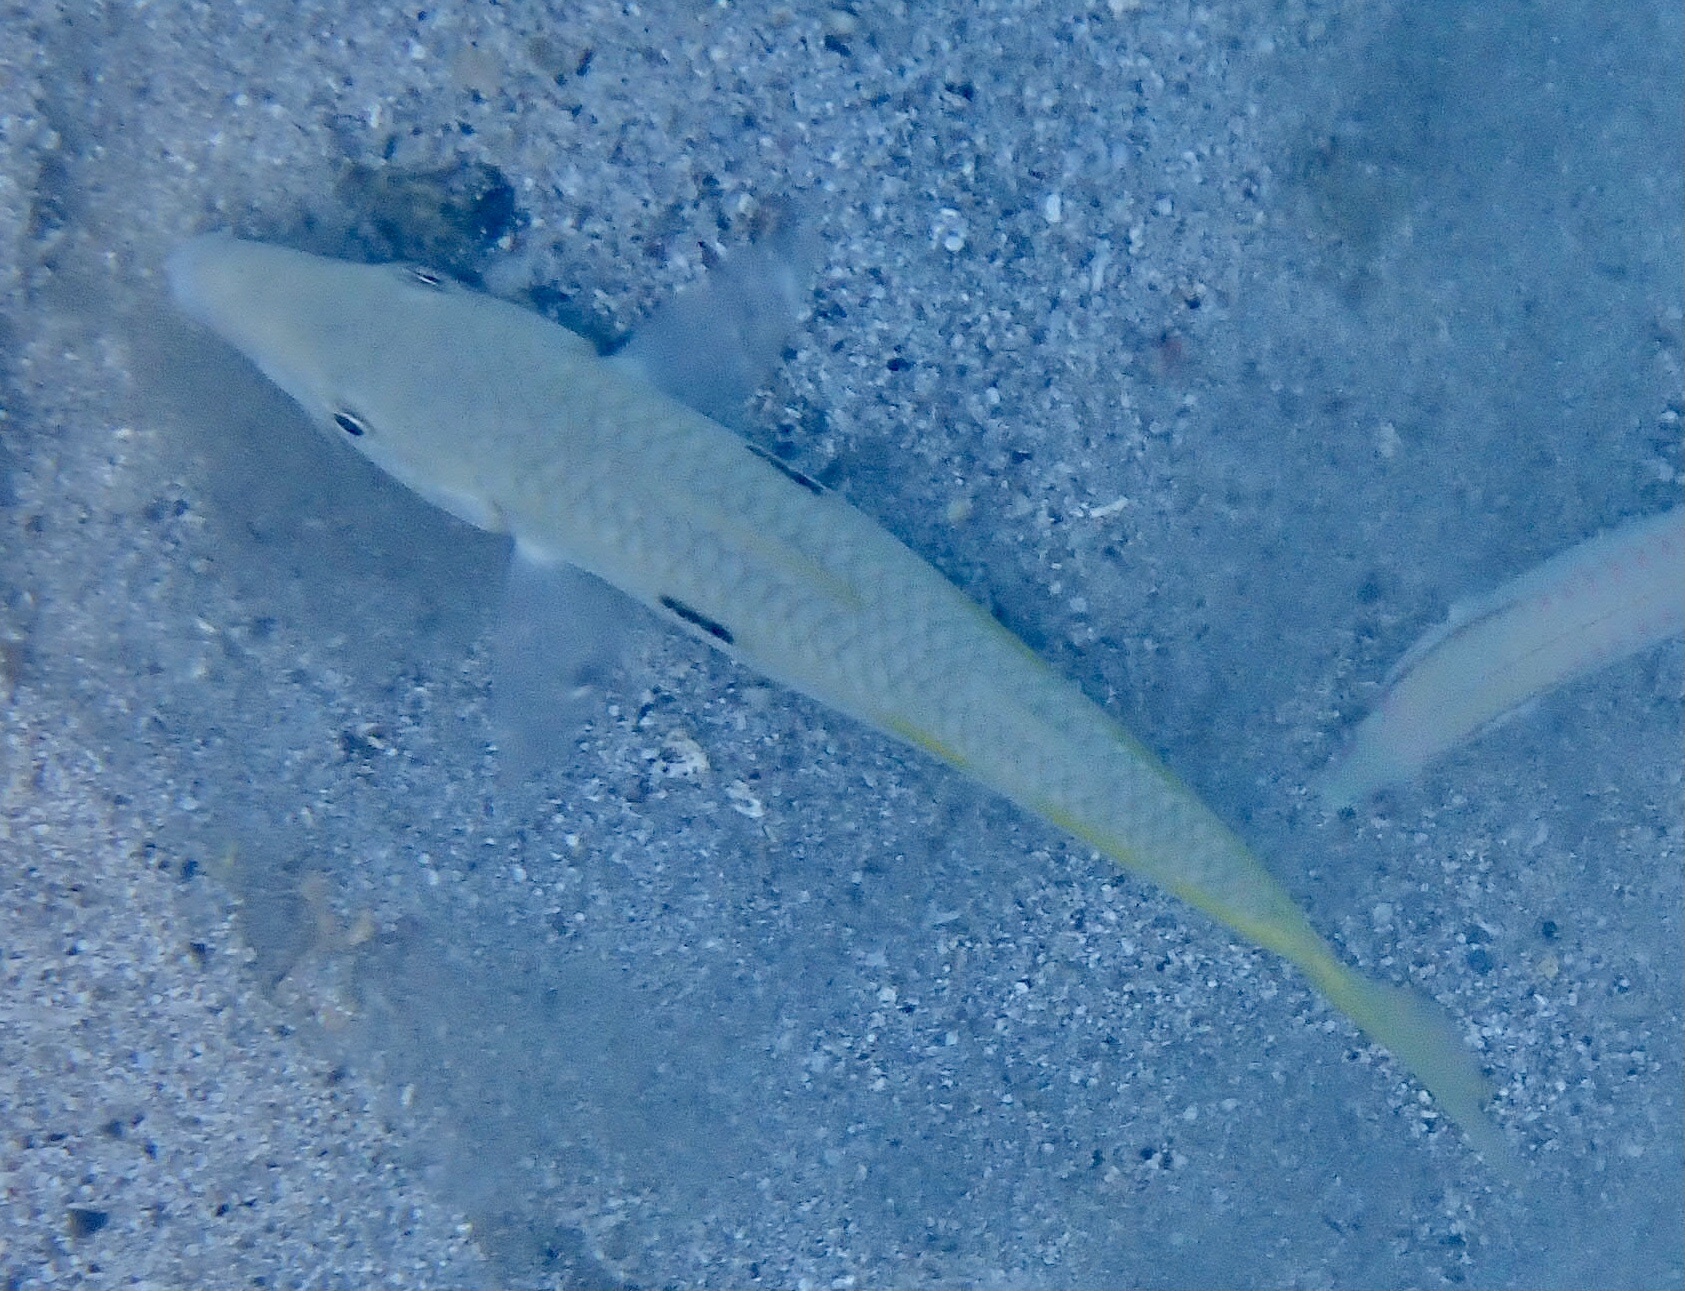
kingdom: Animalia
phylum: Chordata
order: Perciformes
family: Mullidae
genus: Mulloidichthys
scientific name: Mulloidichthys flavolineatus
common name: Yellowstripe goatfish
